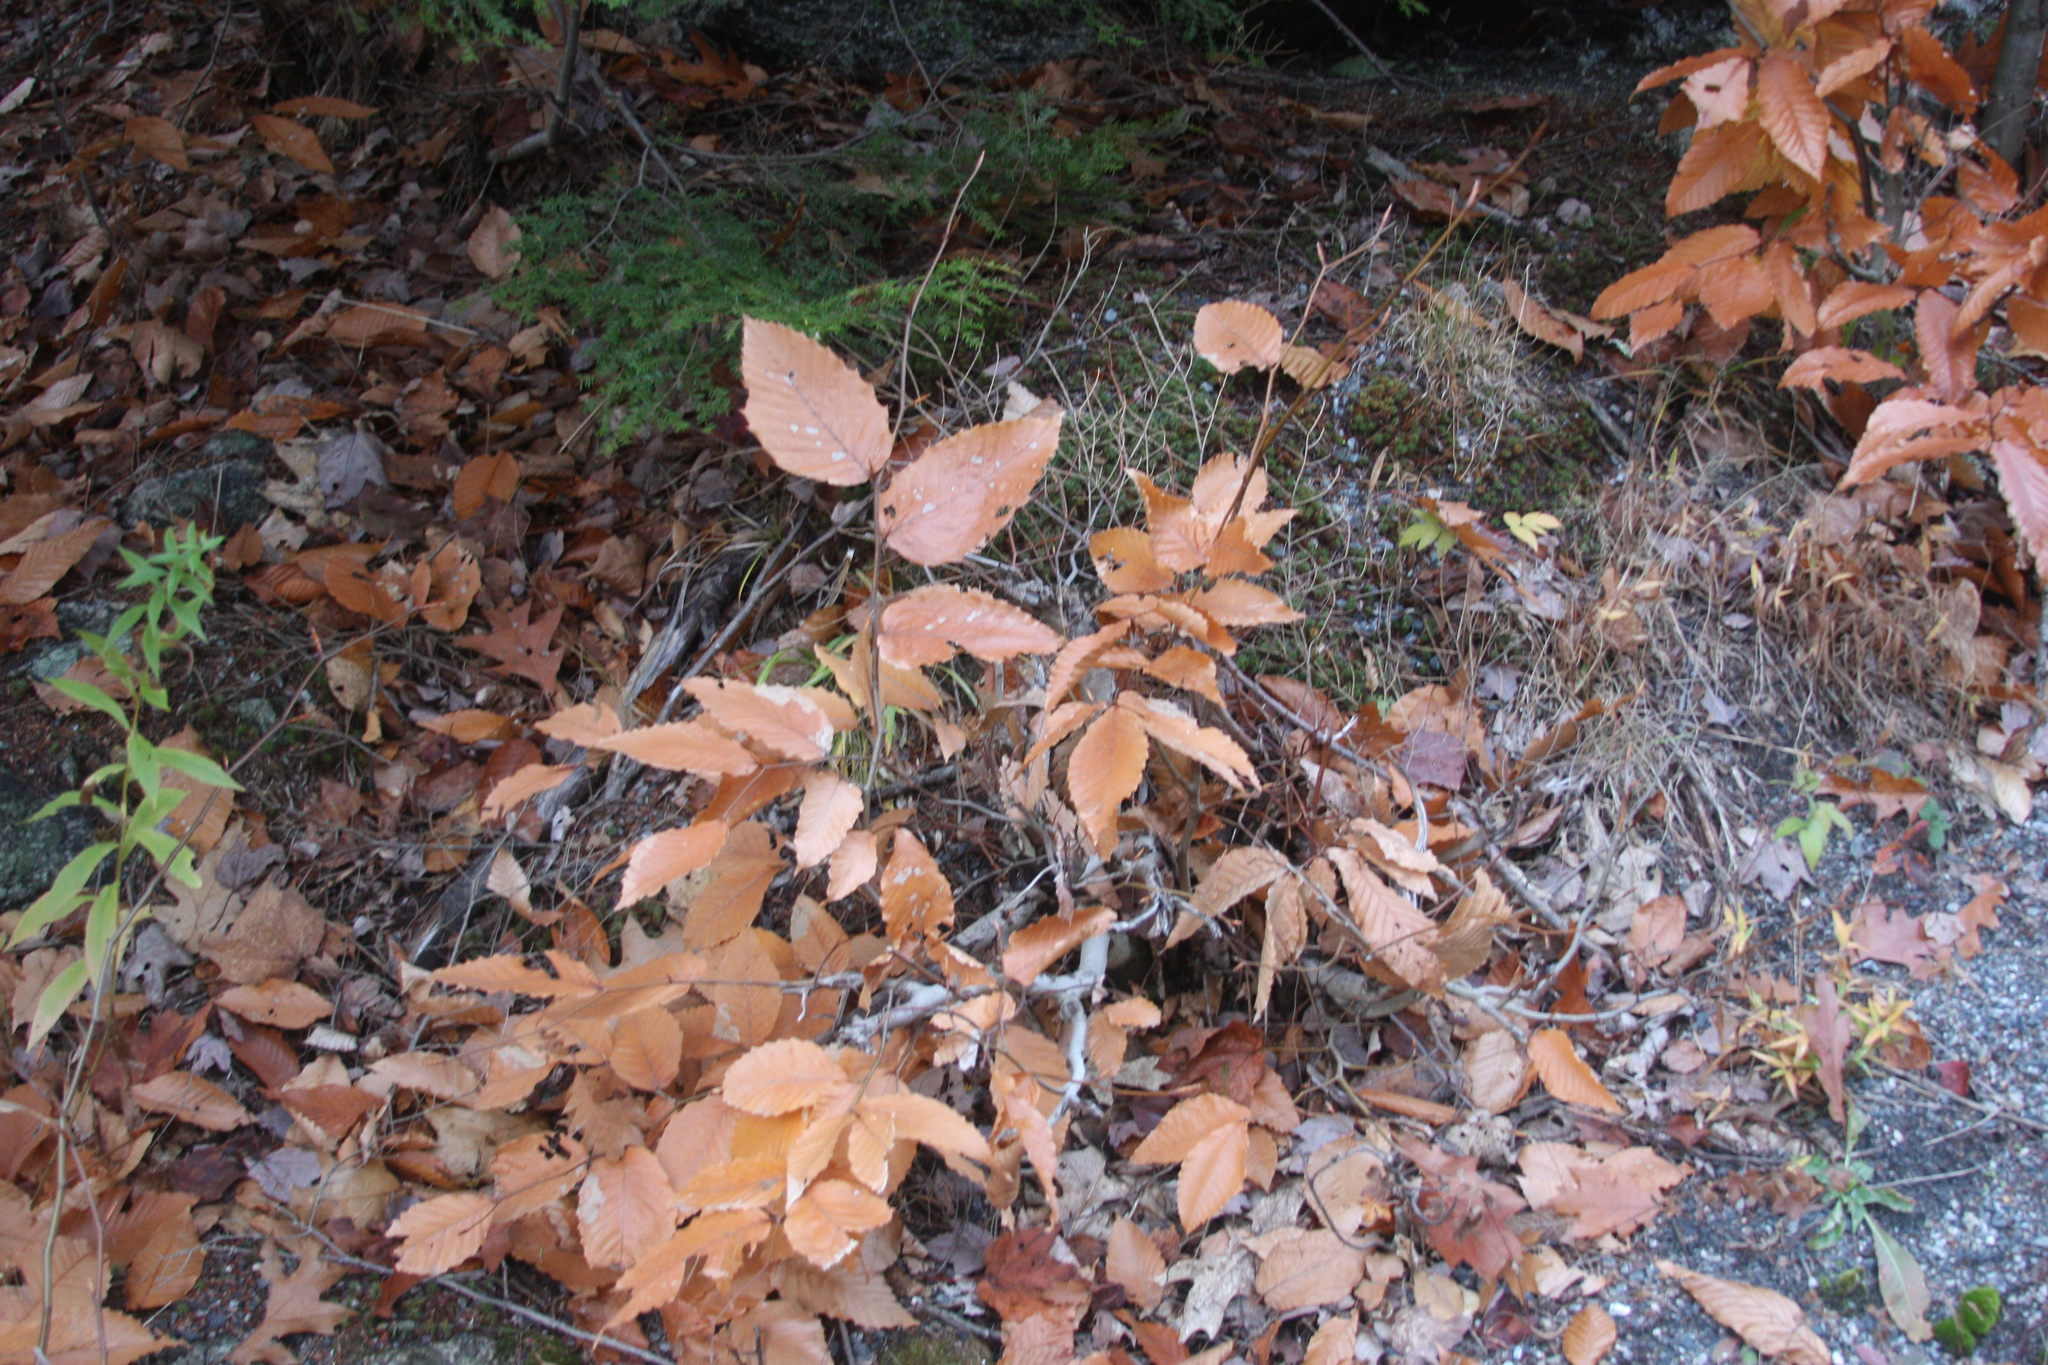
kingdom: Plantae
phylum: Tracheophyta
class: Magnoliopsida
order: Fagales
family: Fagaceae
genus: Fagus
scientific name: Fagus grandifolia
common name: American beech
